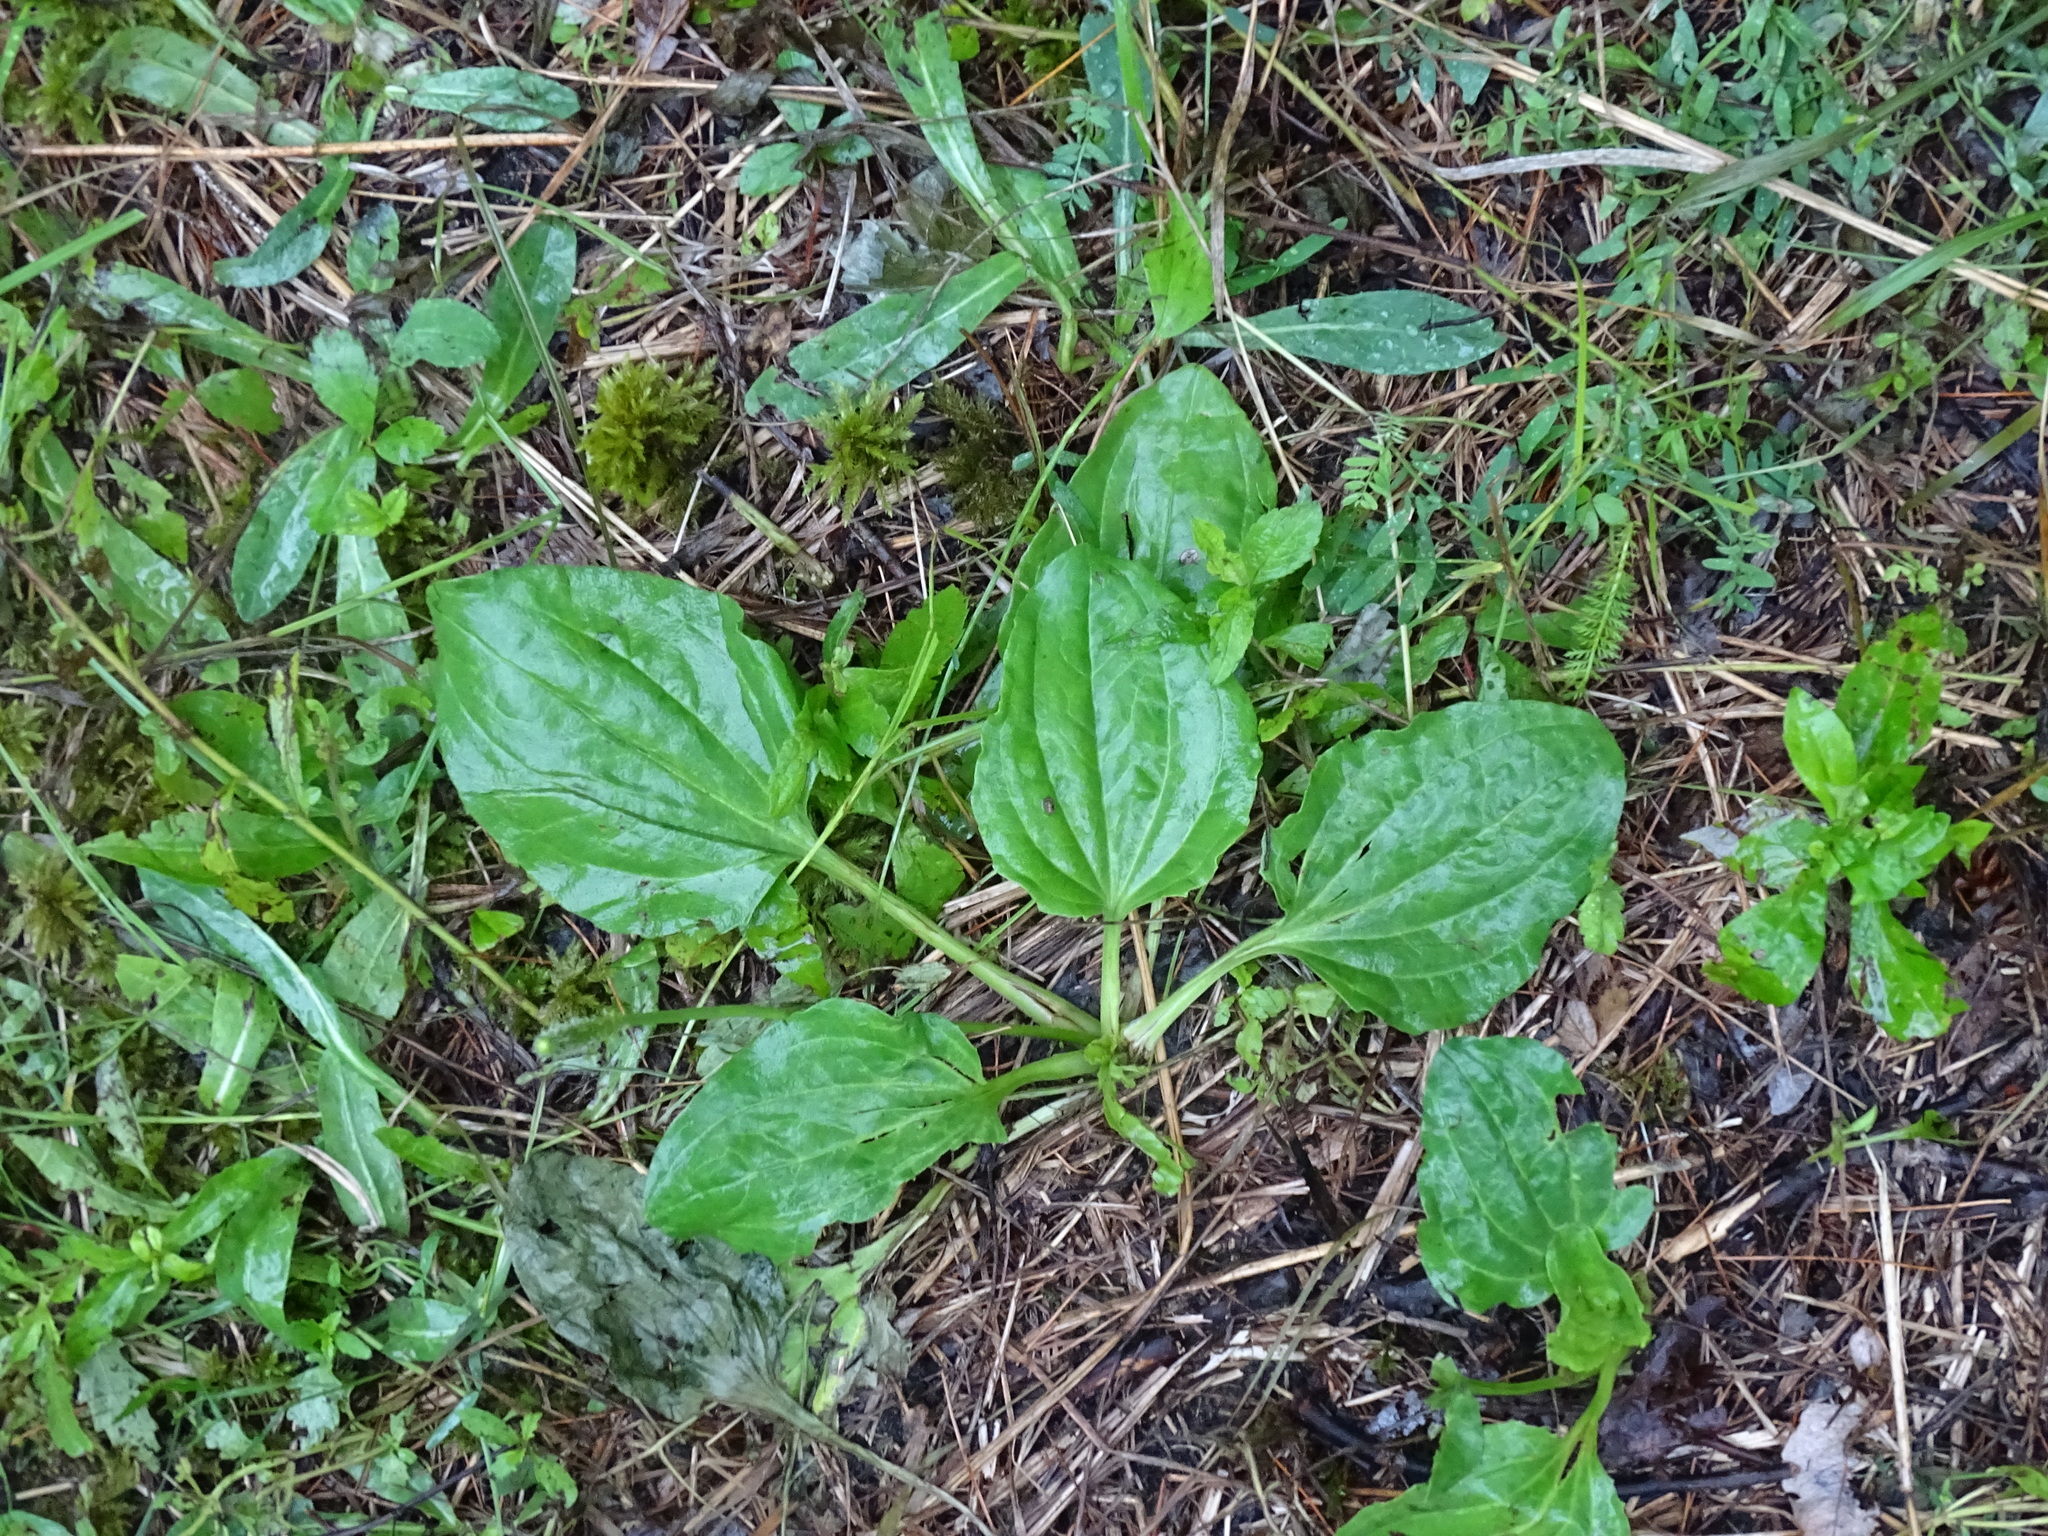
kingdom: Plantae
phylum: Tracheophyta
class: Magnoliopsida
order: Lamiales
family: Plantaginaceae
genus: Plantago
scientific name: Plantago major
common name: Common plantain
